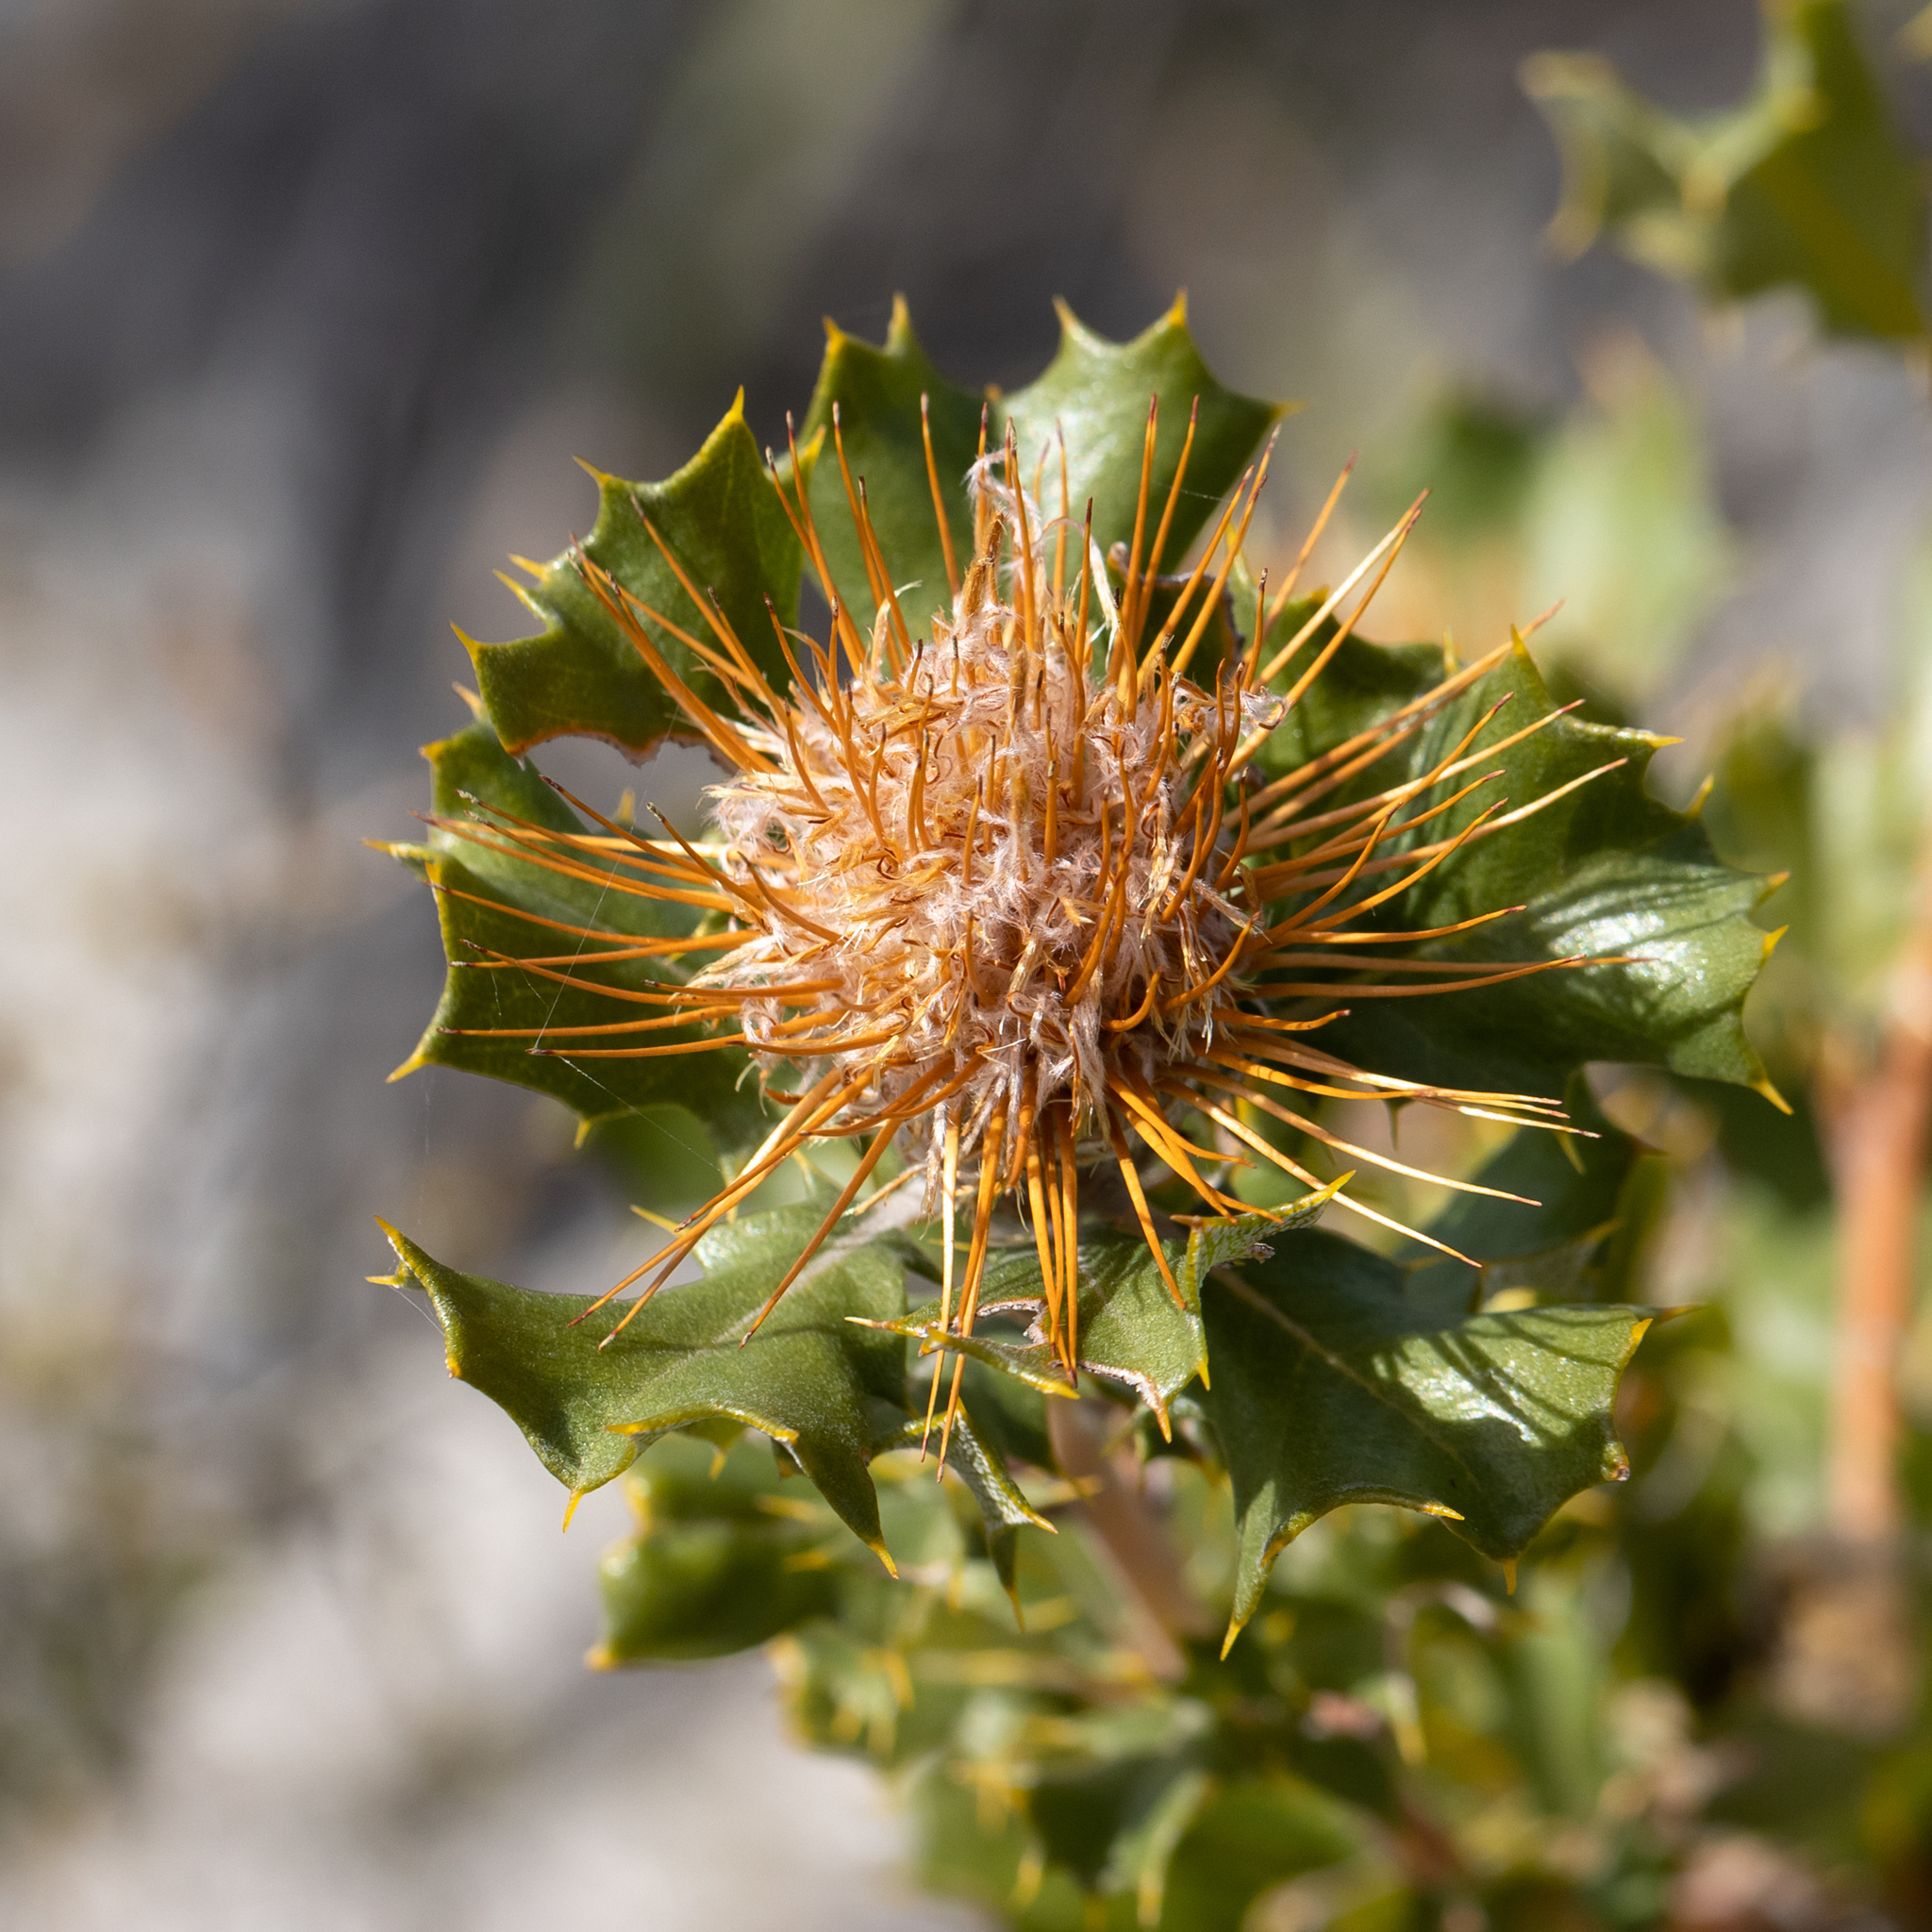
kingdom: Plantae
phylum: Tracheophyta
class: Magnoliopsida
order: Proteales
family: Proteaceae
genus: Banksia
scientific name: Banksia obovata
